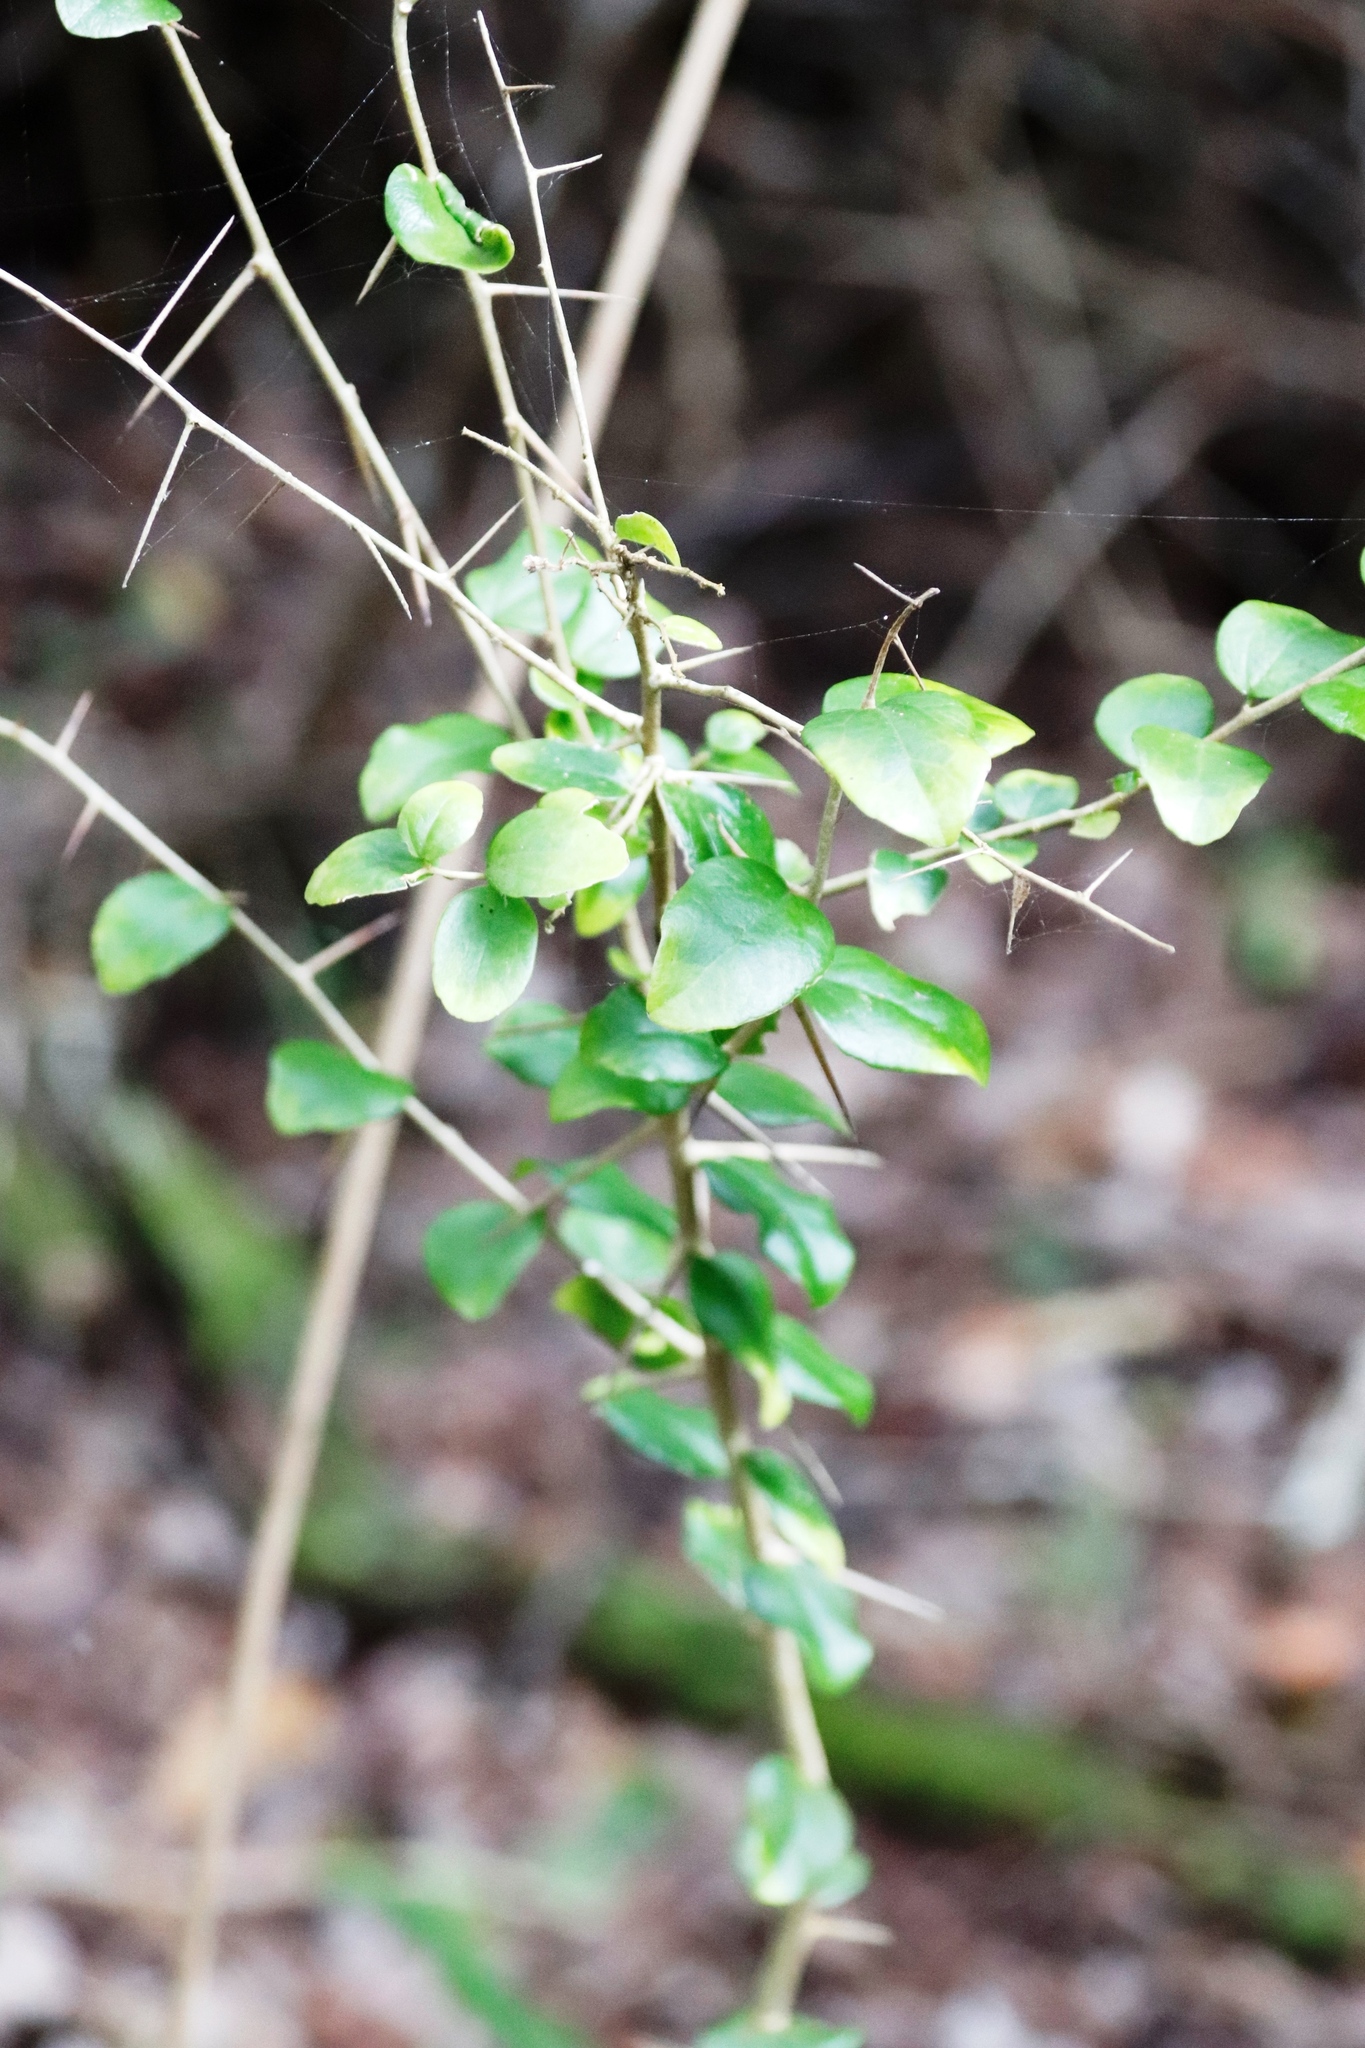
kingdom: Plantae
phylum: Tracheophyta
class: Magnoliopsida
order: Malpighiales
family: Salicaceae
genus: Dovyalis
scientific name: Dovyalis rhamnoides
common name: Sourberry
